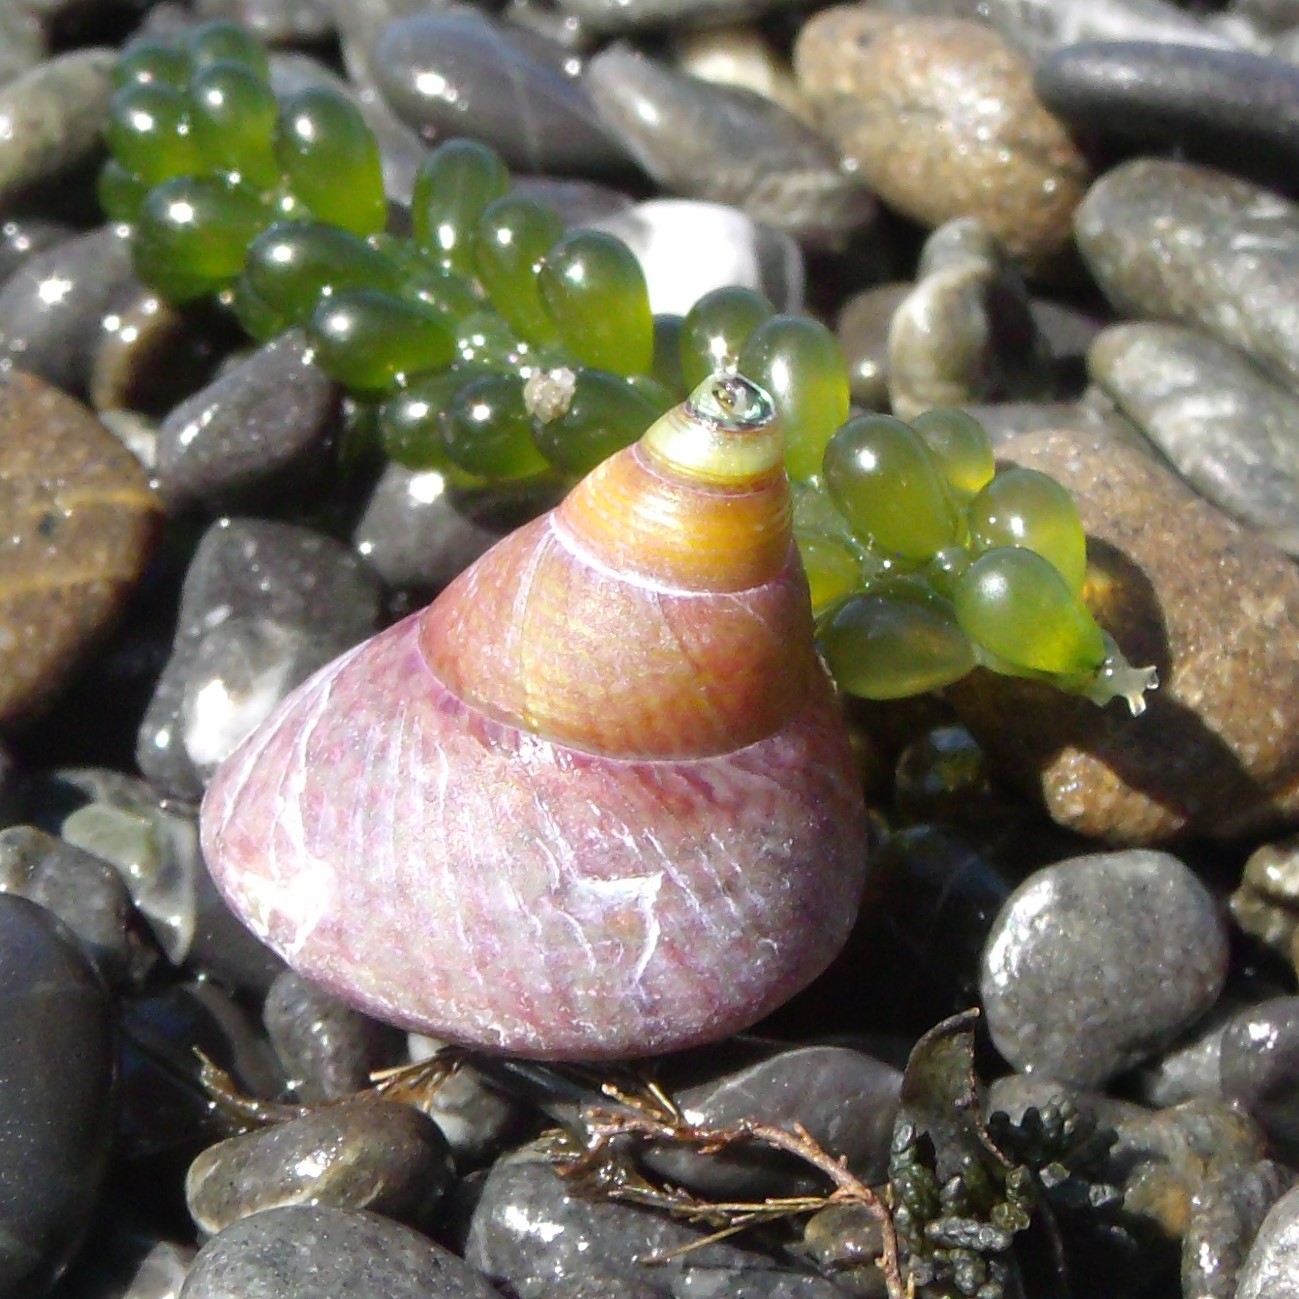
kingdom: Animalia
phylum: Mollusca
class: Gastropoda
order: Trochida
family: Trochidae
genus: Cantharidus
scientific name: Cantharidus opalus
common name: Opal jewel topsnail
